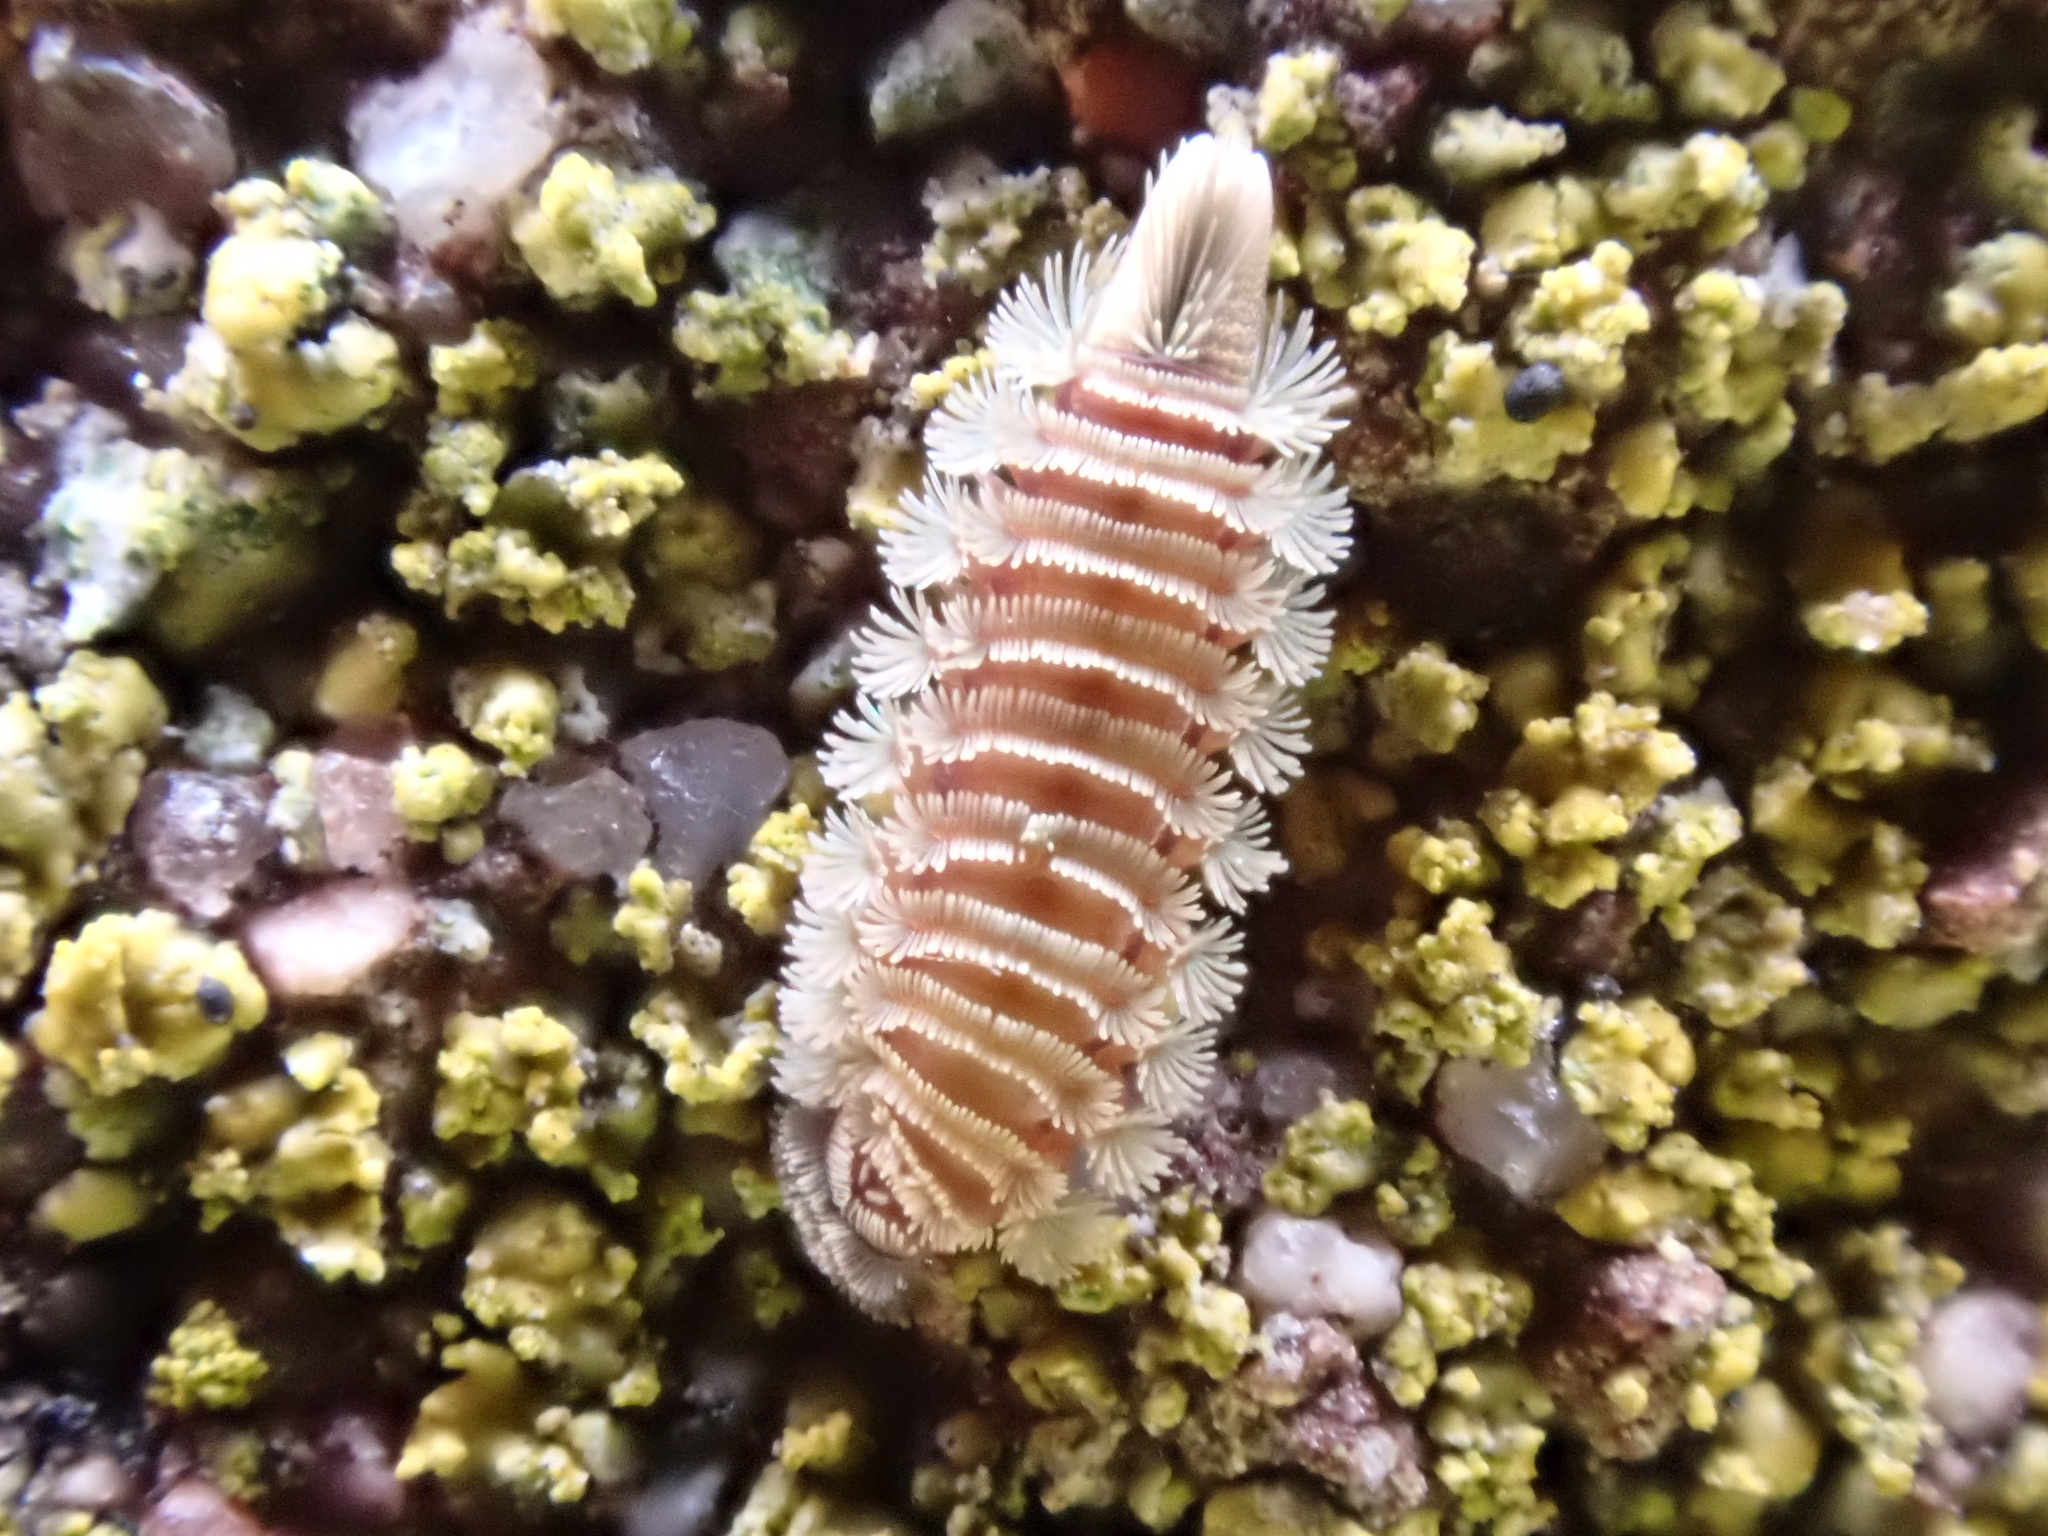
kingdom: Animalia
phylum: Arthropoda
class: Diplopoda
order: Polyxenida
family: Polyxenidae
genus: Polyxenus
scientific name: Polyxenus lagurus
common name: Bristly millipede
